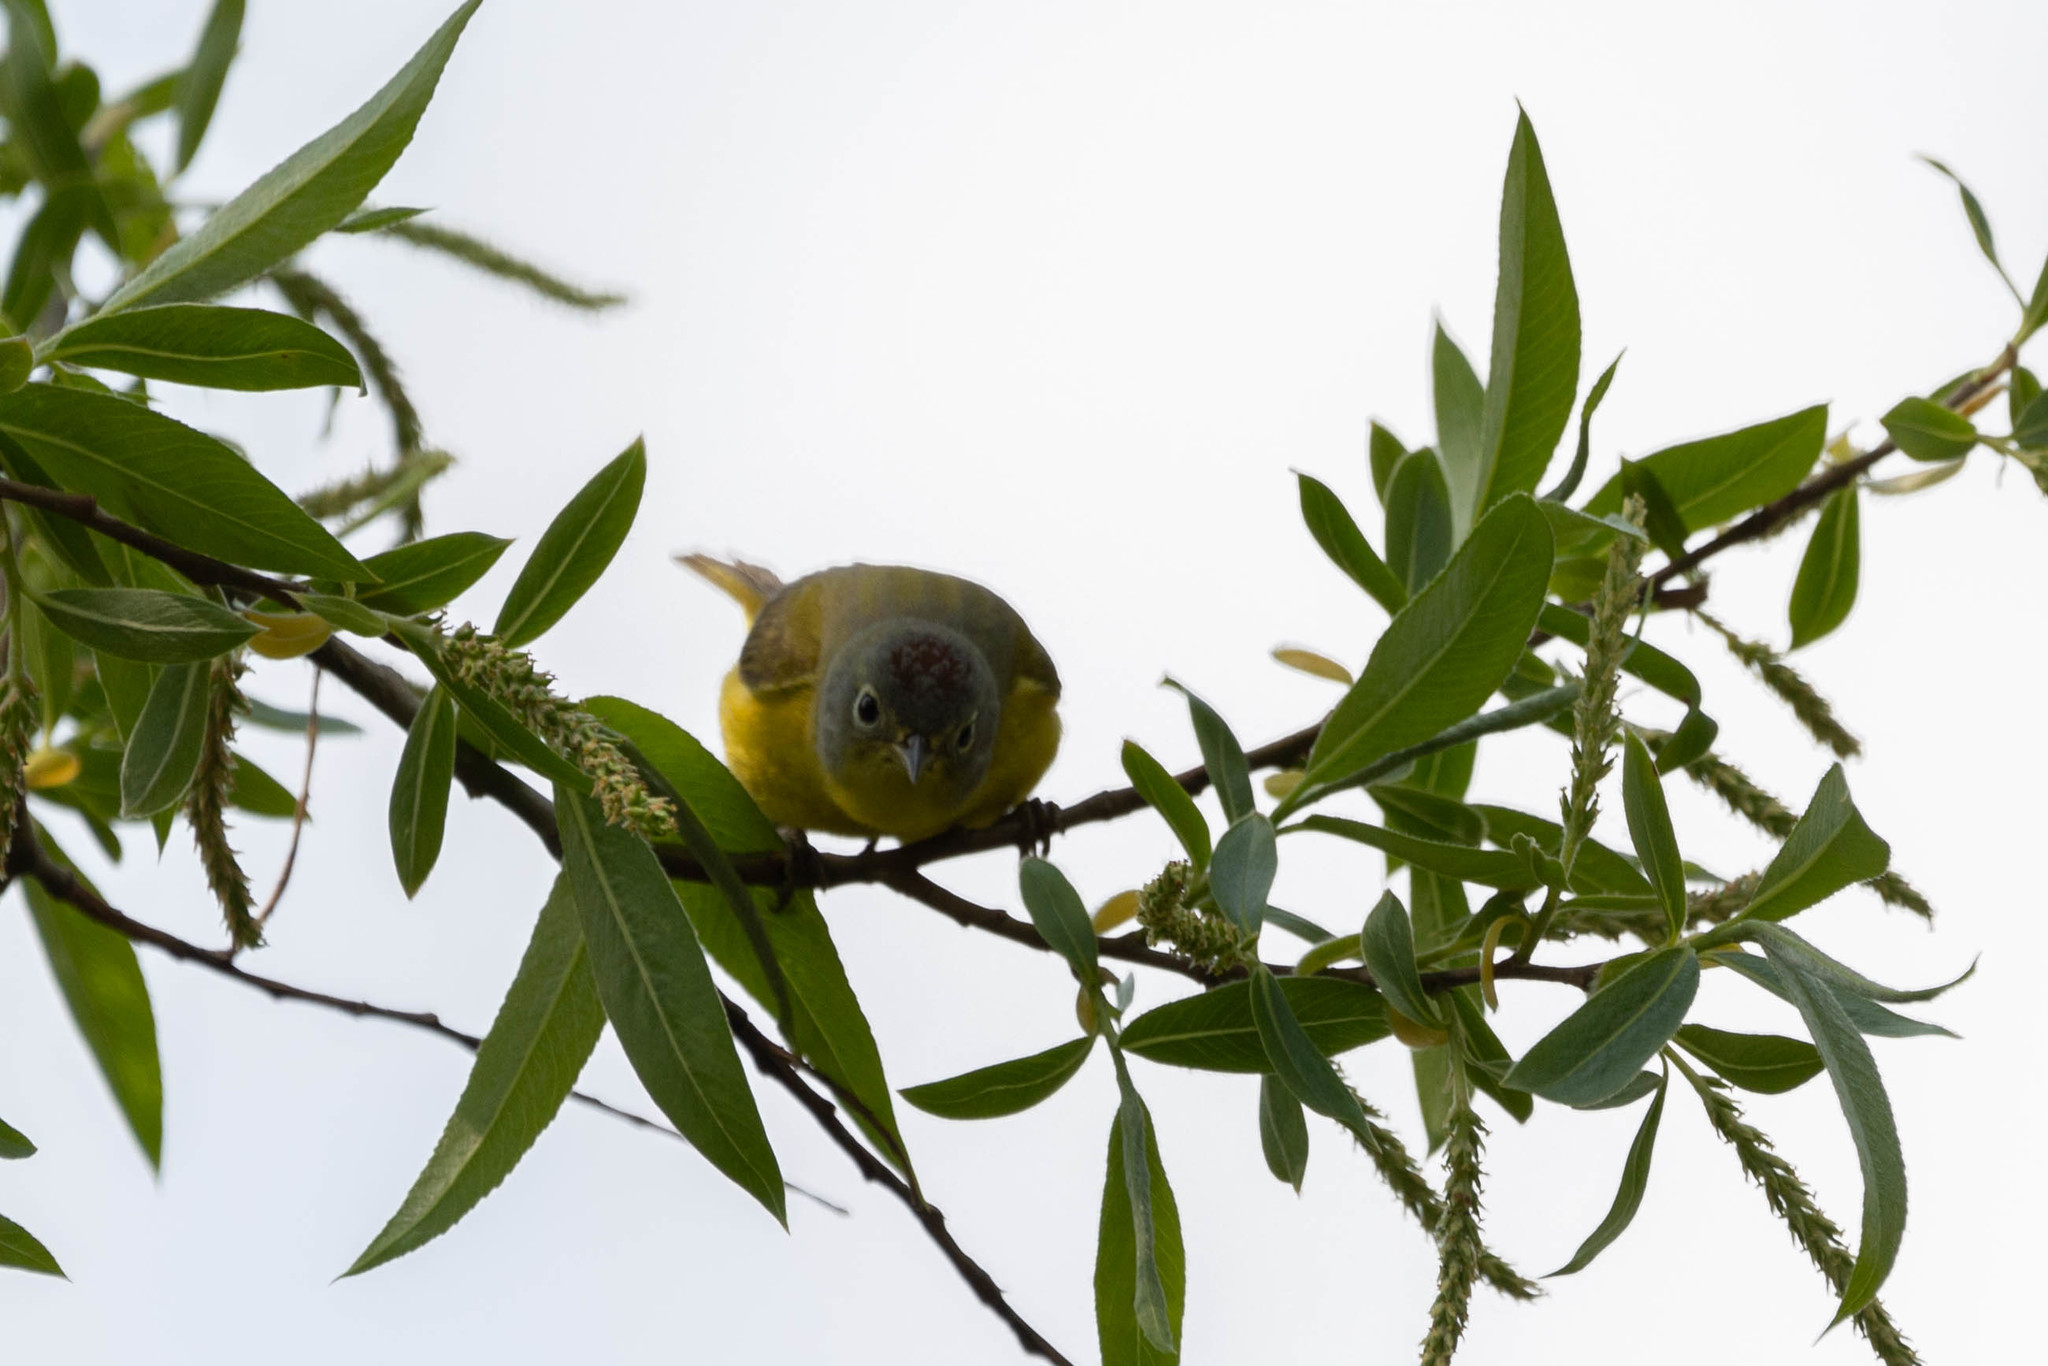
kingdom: Animalia
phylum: Chordata
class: Aves
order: Passeriformes
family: Parulidae
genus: Leiothlypis
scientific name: Leiothlypis ruficapilla
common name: Nashville warbler
